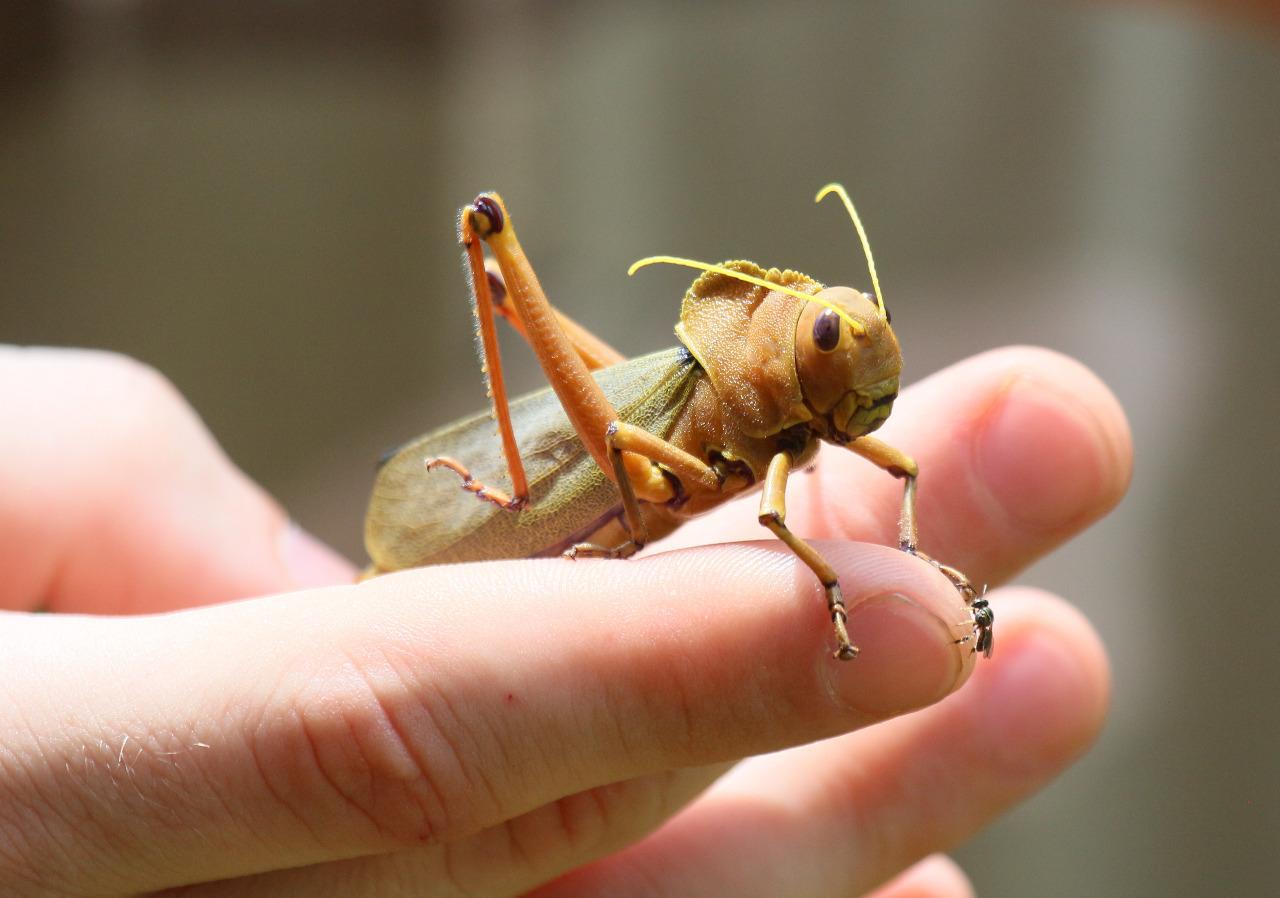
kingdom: Animalia
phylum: Arthropoda
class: Insecta
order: Orthoptera
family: Acrididae
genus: Antiphon
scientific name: Antiphon acropyrinon
